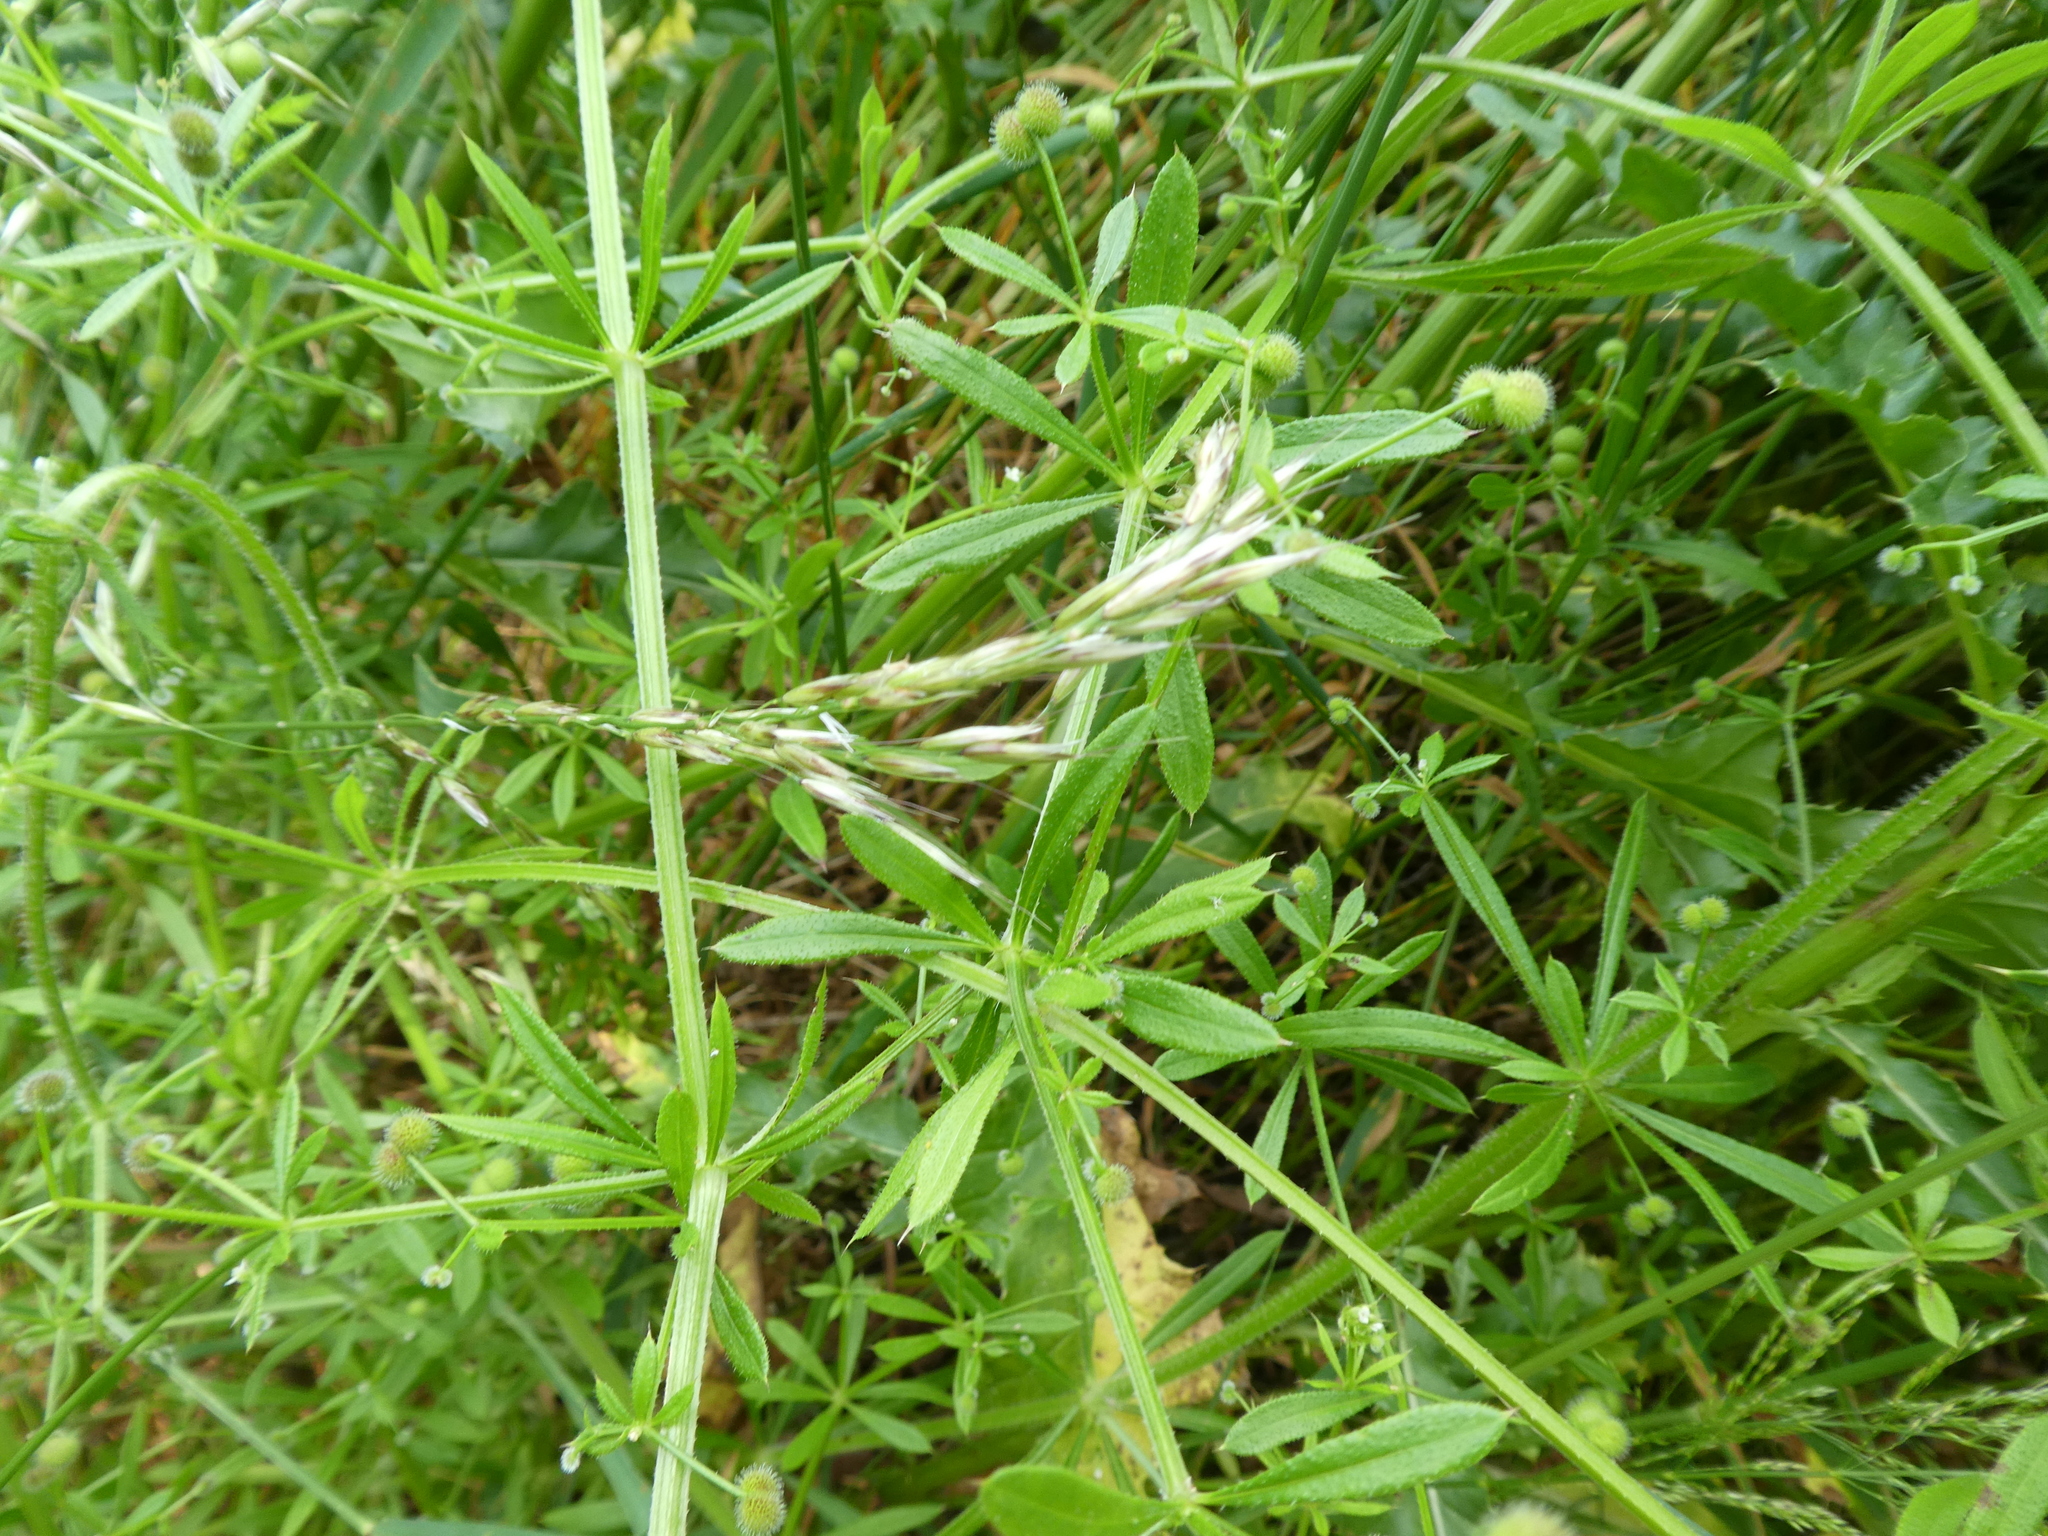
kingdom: Plantae
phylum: Tracheophyta
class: Magnoliopsida
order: Gentianales
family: Rubiaceae
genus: Galium
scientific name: Galium aparine
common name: Cleavers
